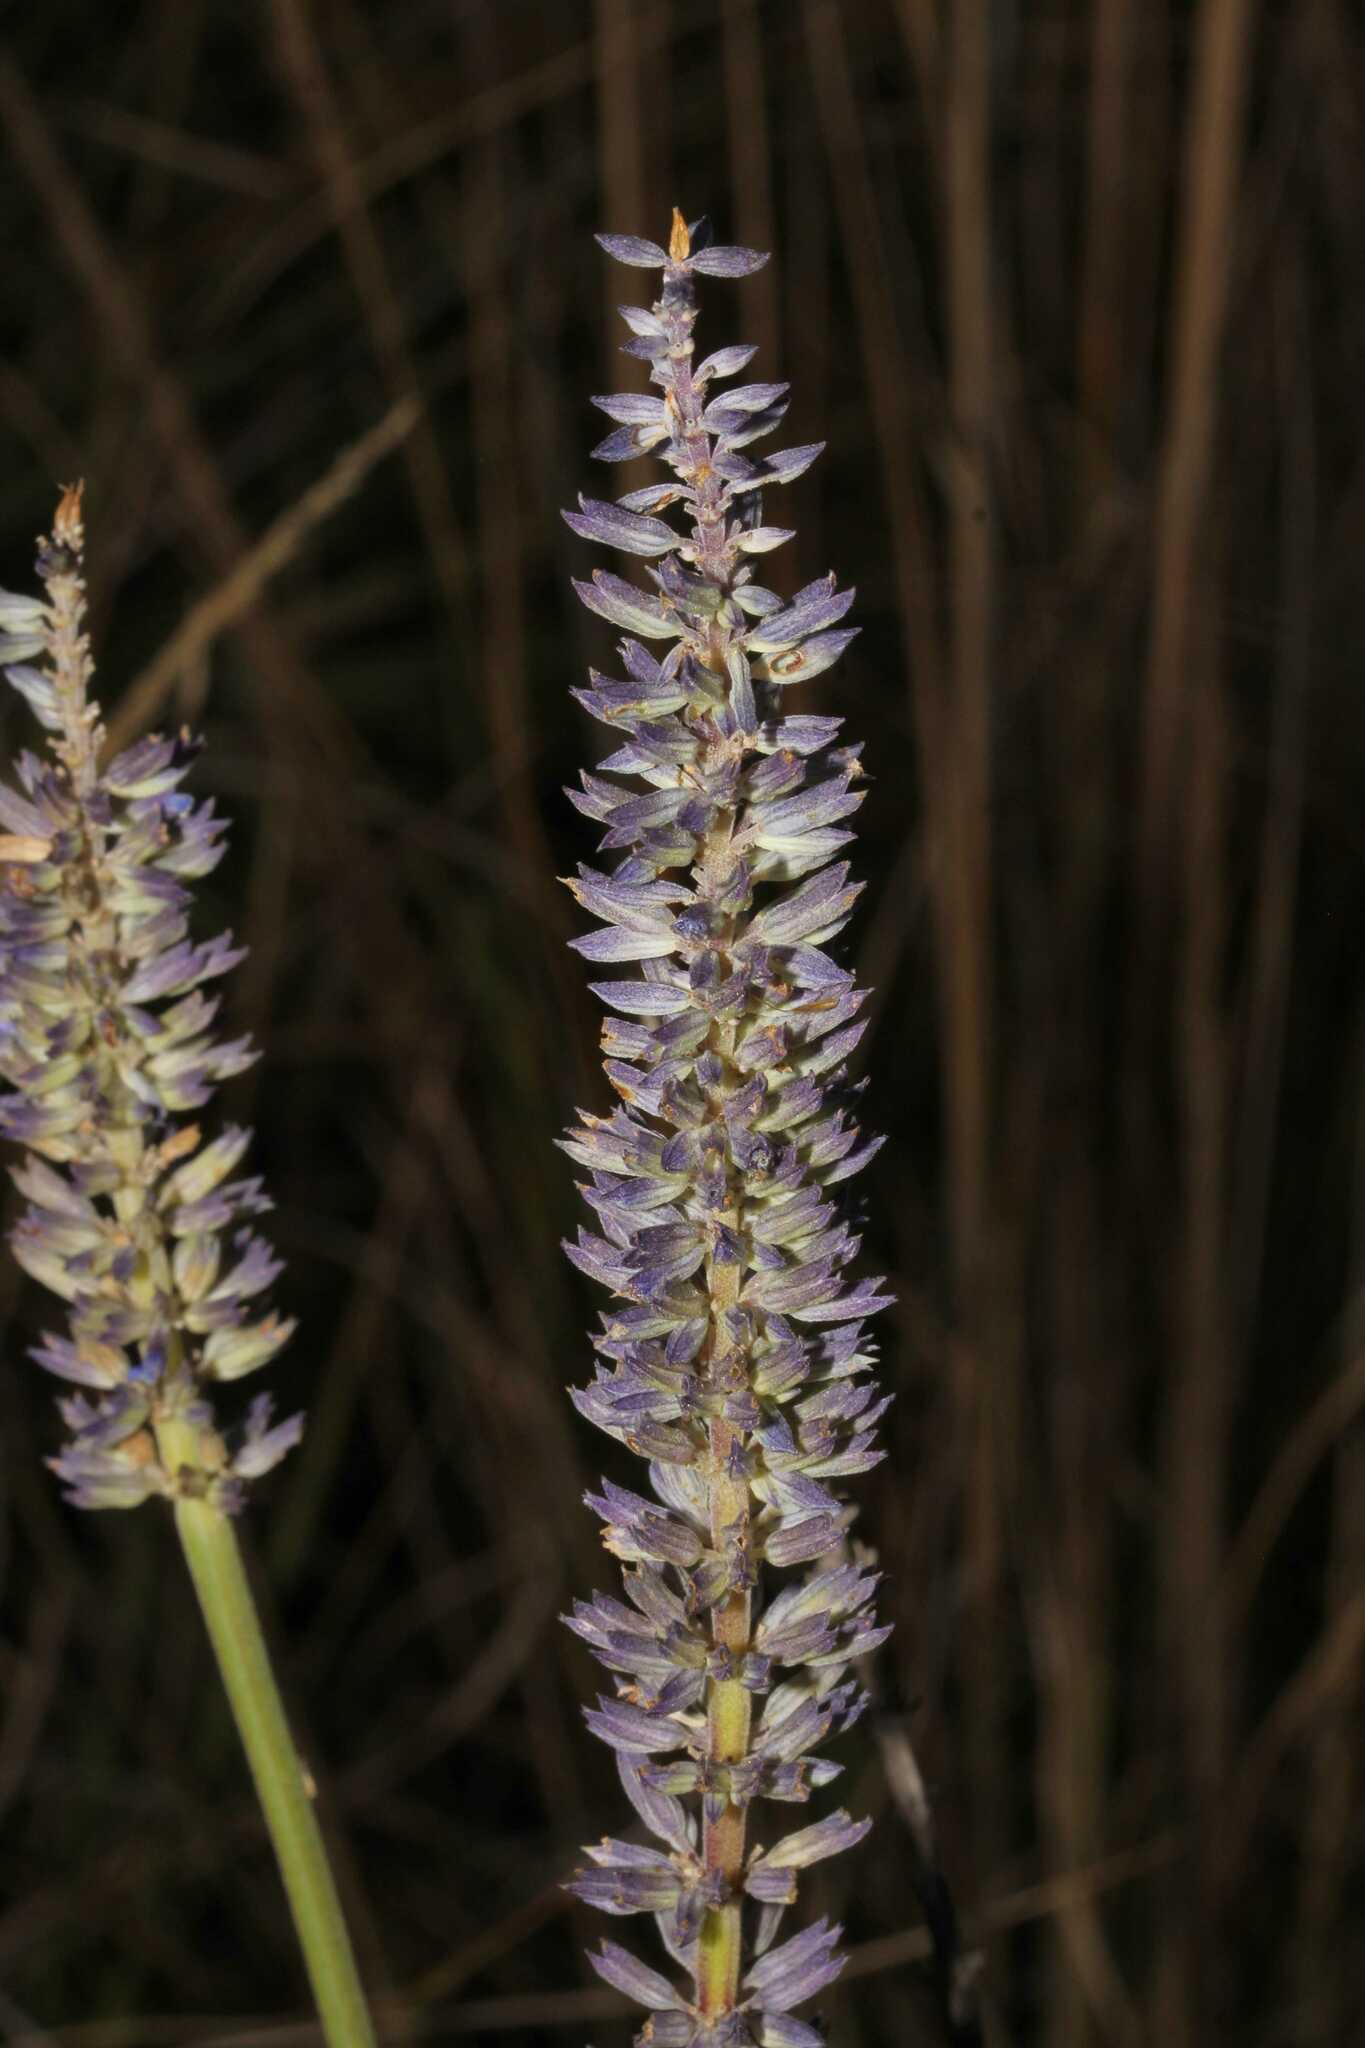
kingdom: Plantae
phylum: Tracheophyta
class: Magnoliopsida
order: Lamiales
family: Lamiaceae
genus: Salvia
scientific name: Salvia lavanduloides
